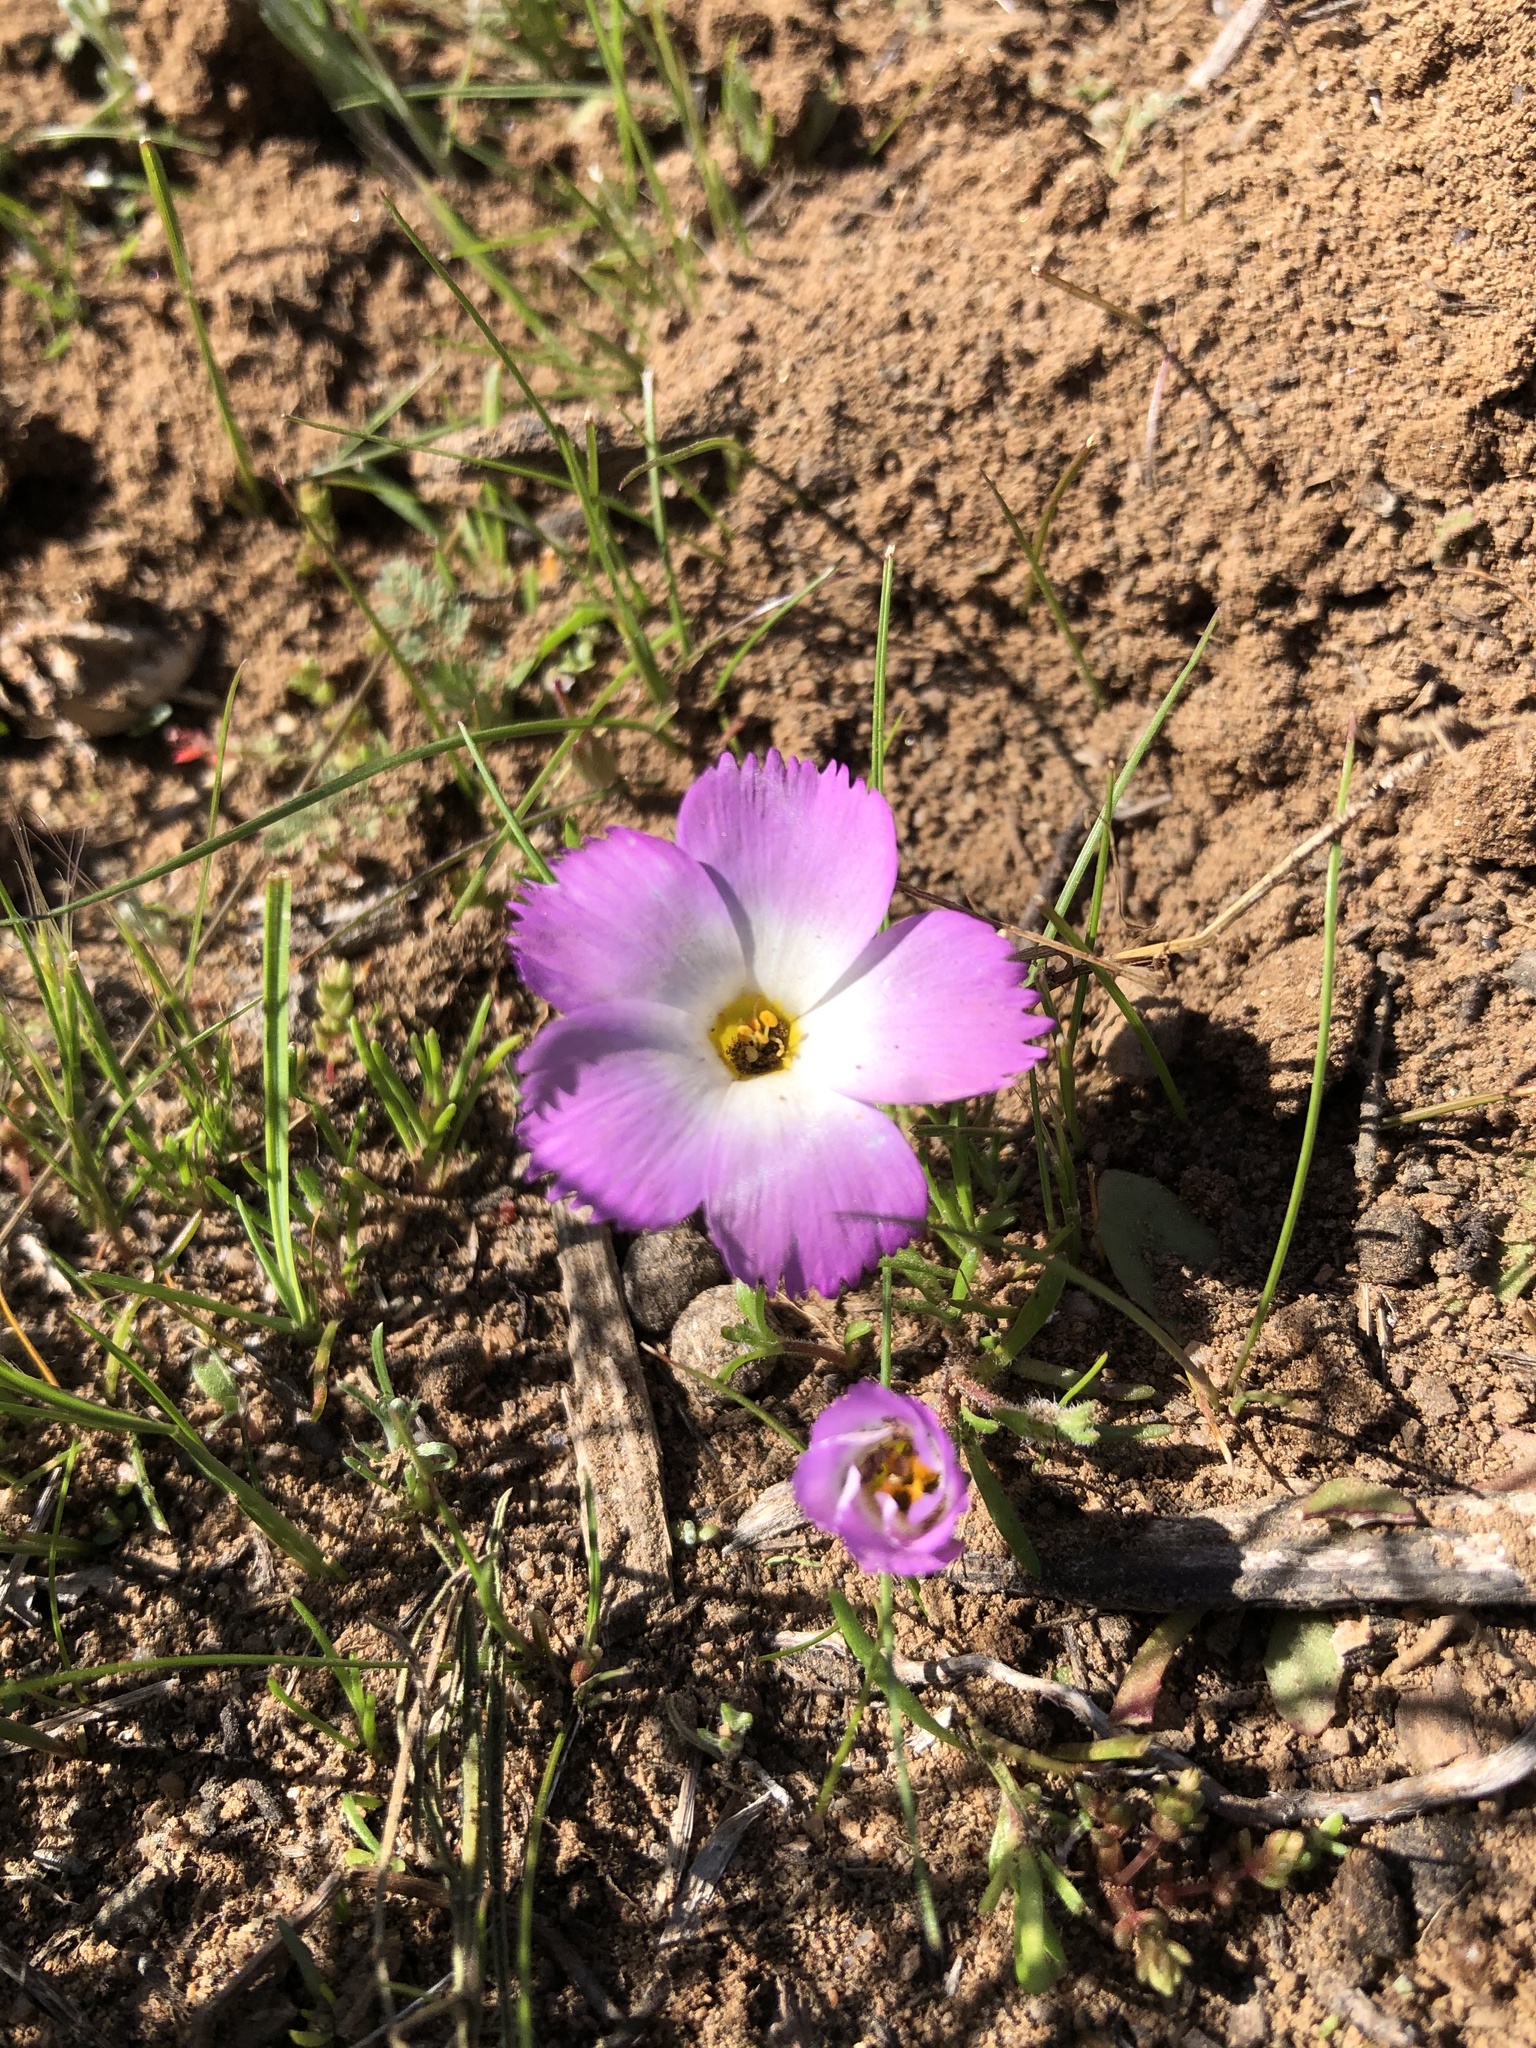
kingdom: Plantae
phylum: Tracheophyta
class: Magnoliopsida
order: Ericales
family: Polemoniaceae
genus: Linanthus
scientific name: Linanthus dianthiflorus
